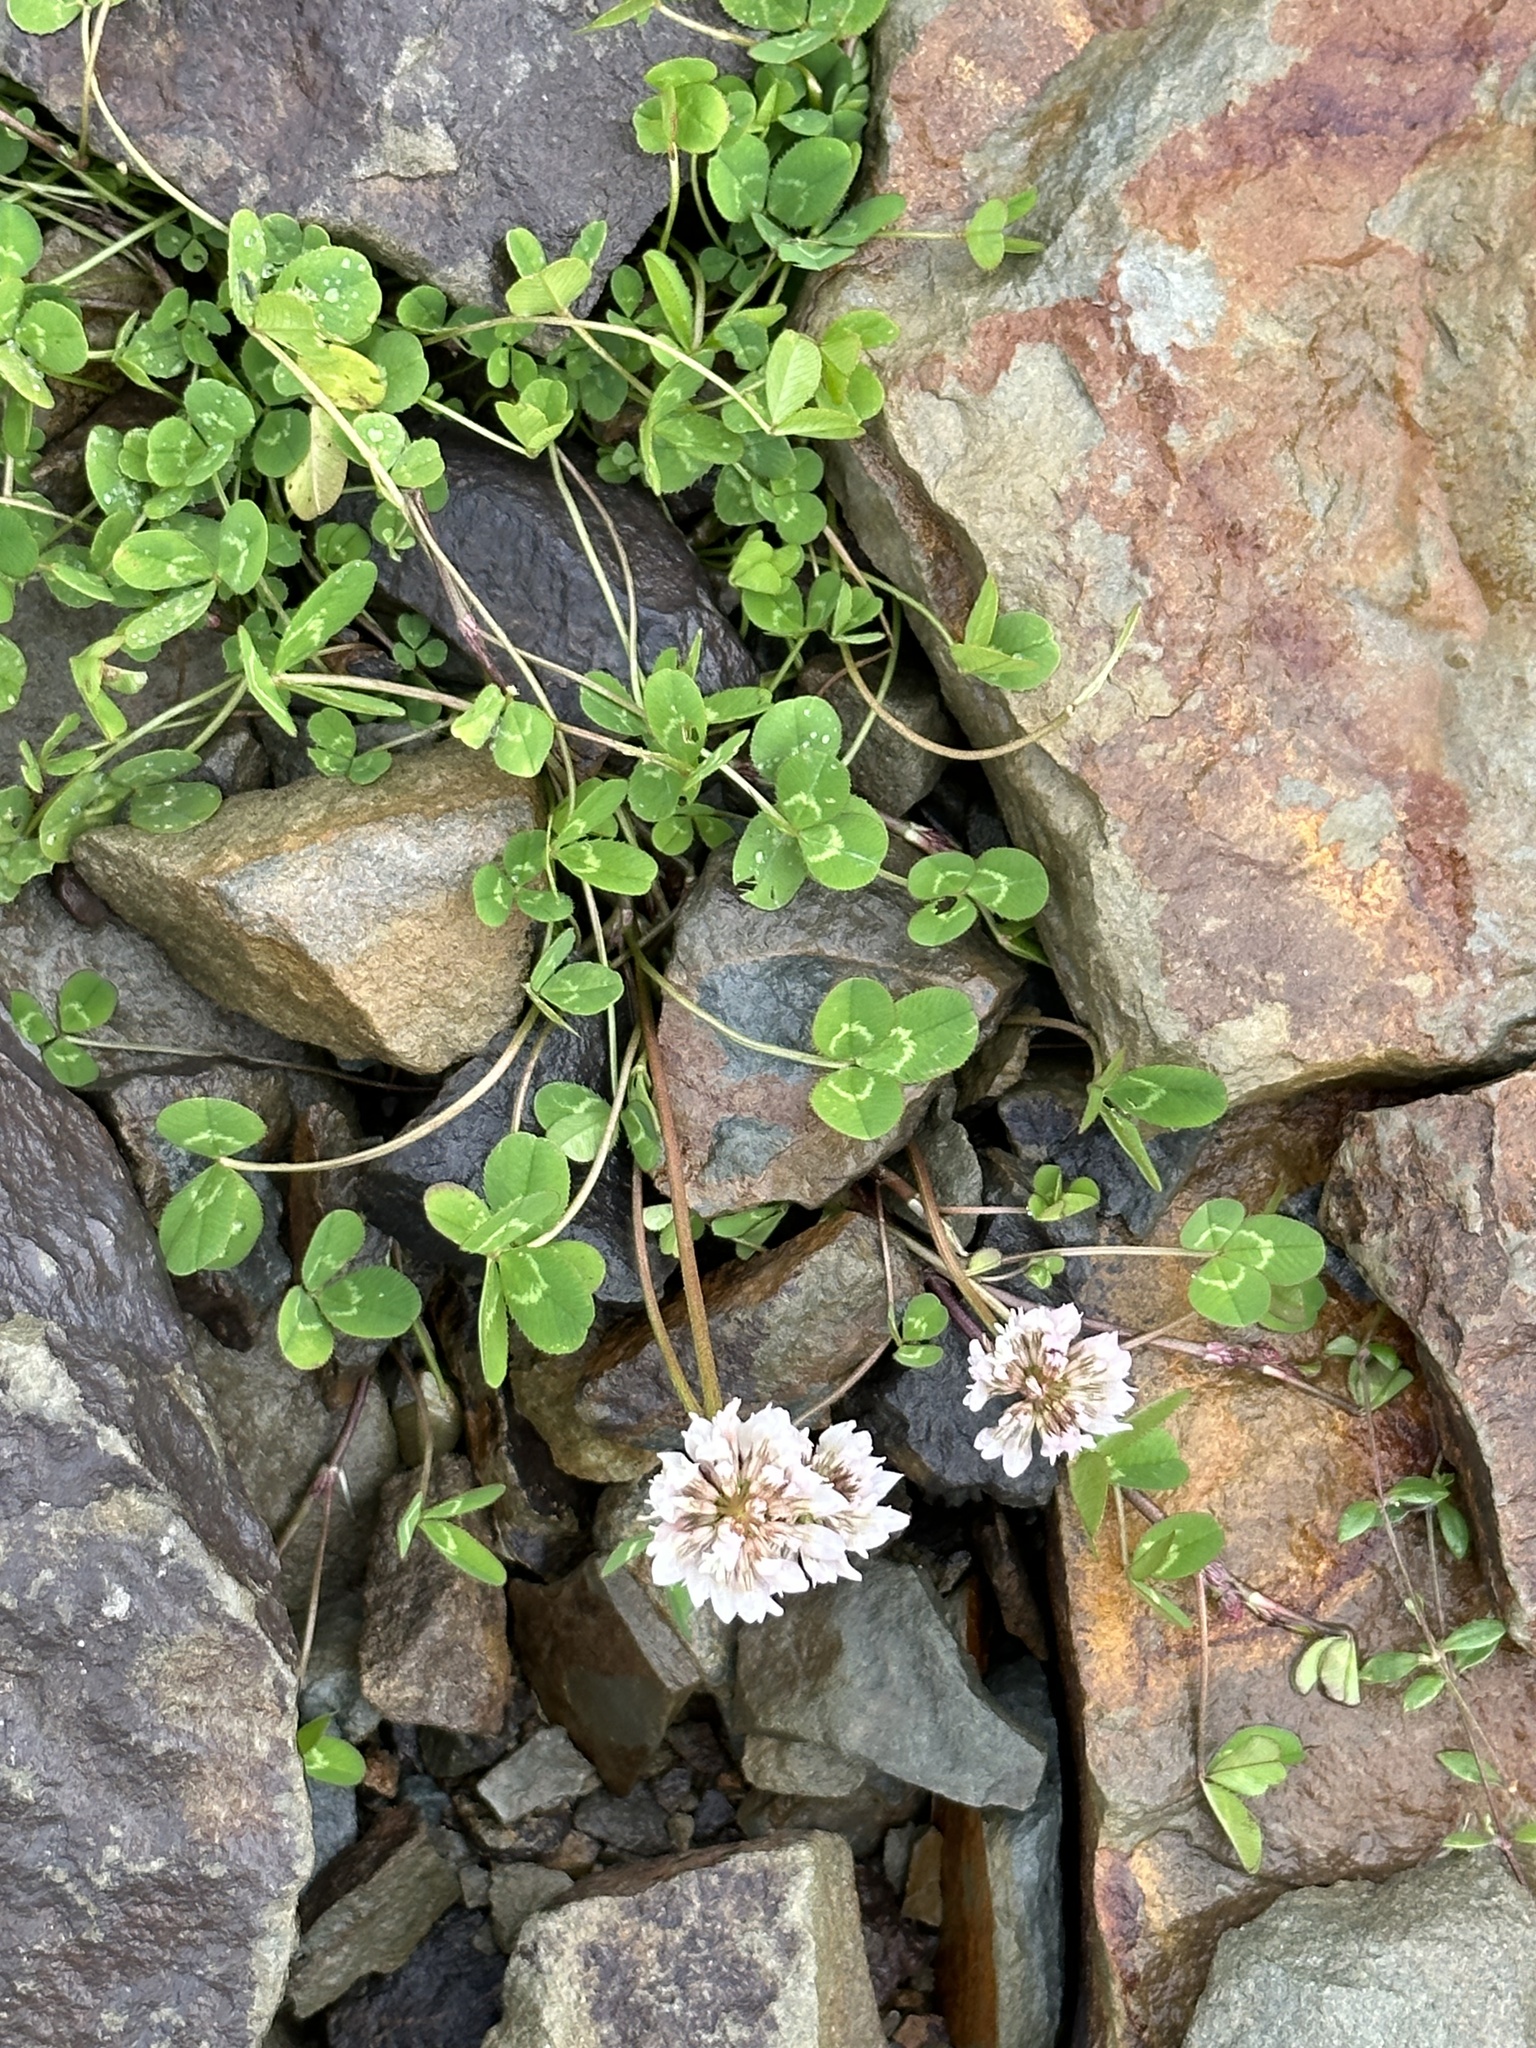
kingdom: Plantae
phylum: Tracheophyta
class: Magnoliopsida
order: Fabales
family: Fabaceae
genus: Trifolium
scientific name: Trifolium repens
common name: White clover
